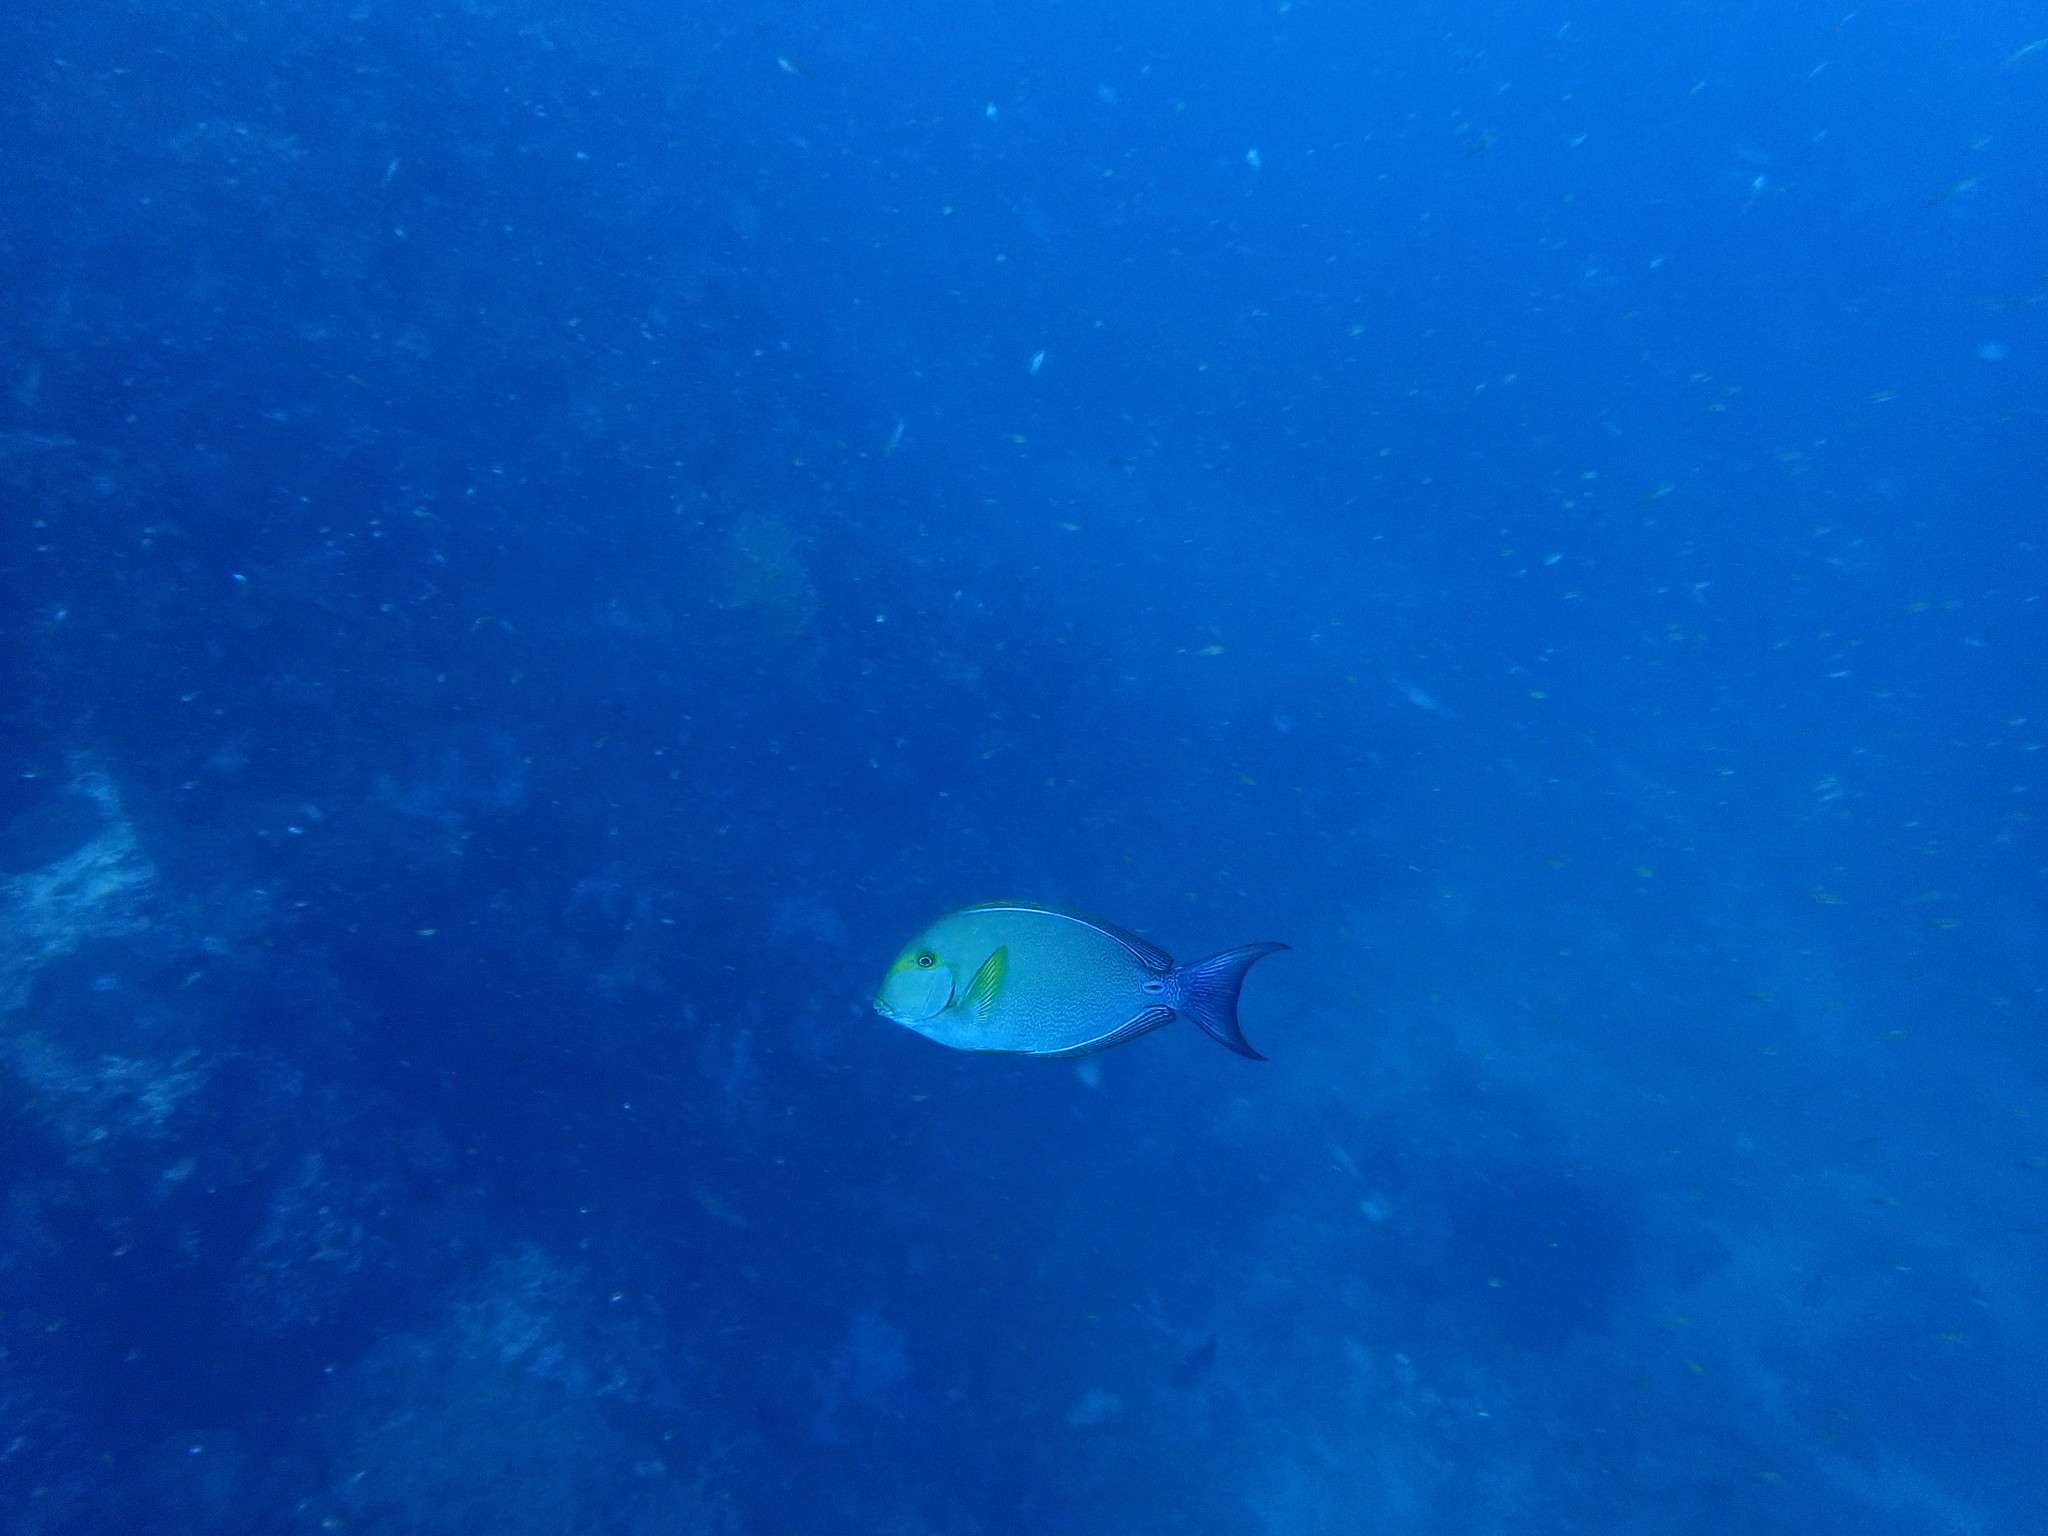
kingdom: Animalia
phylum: Chordata
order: Perciformes
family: Acanthuridae
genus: Acanthurus
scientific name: Acanthurus xanthopterus
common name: Cuvier's surgeonfish
